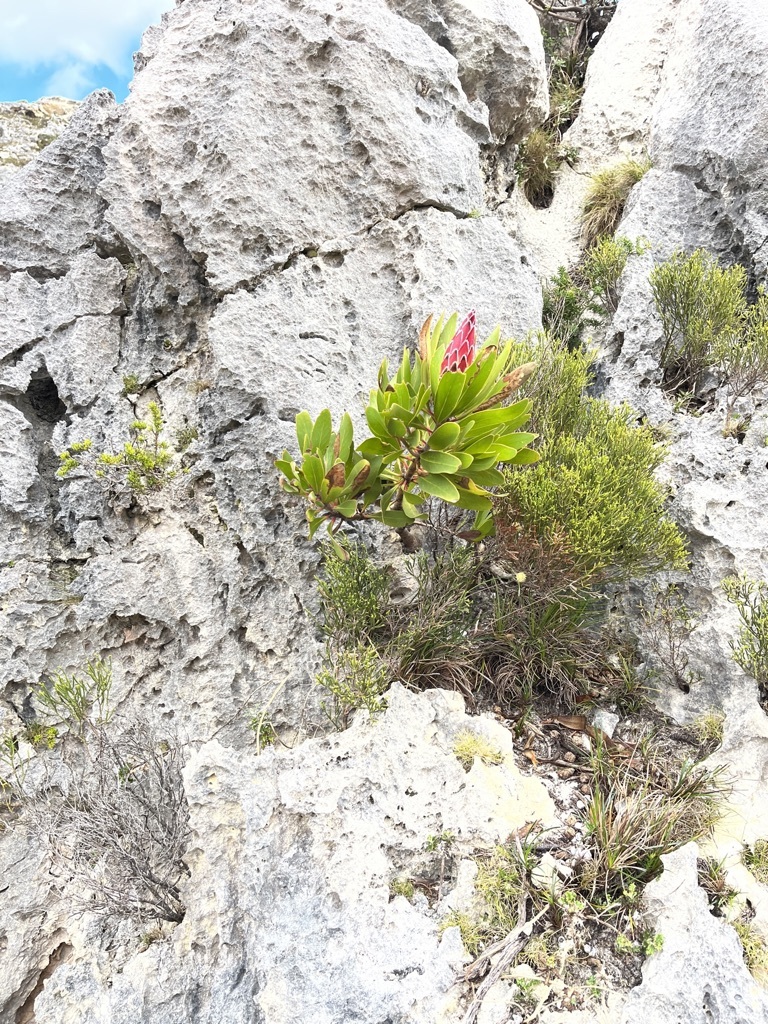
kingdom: Plantae
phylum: Tracheophyta
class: Magnoliopsida
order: Proteales
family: Proteaceae
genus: Protea
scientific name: Protea obtusifolia
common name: Bredasdorp sugarbush
